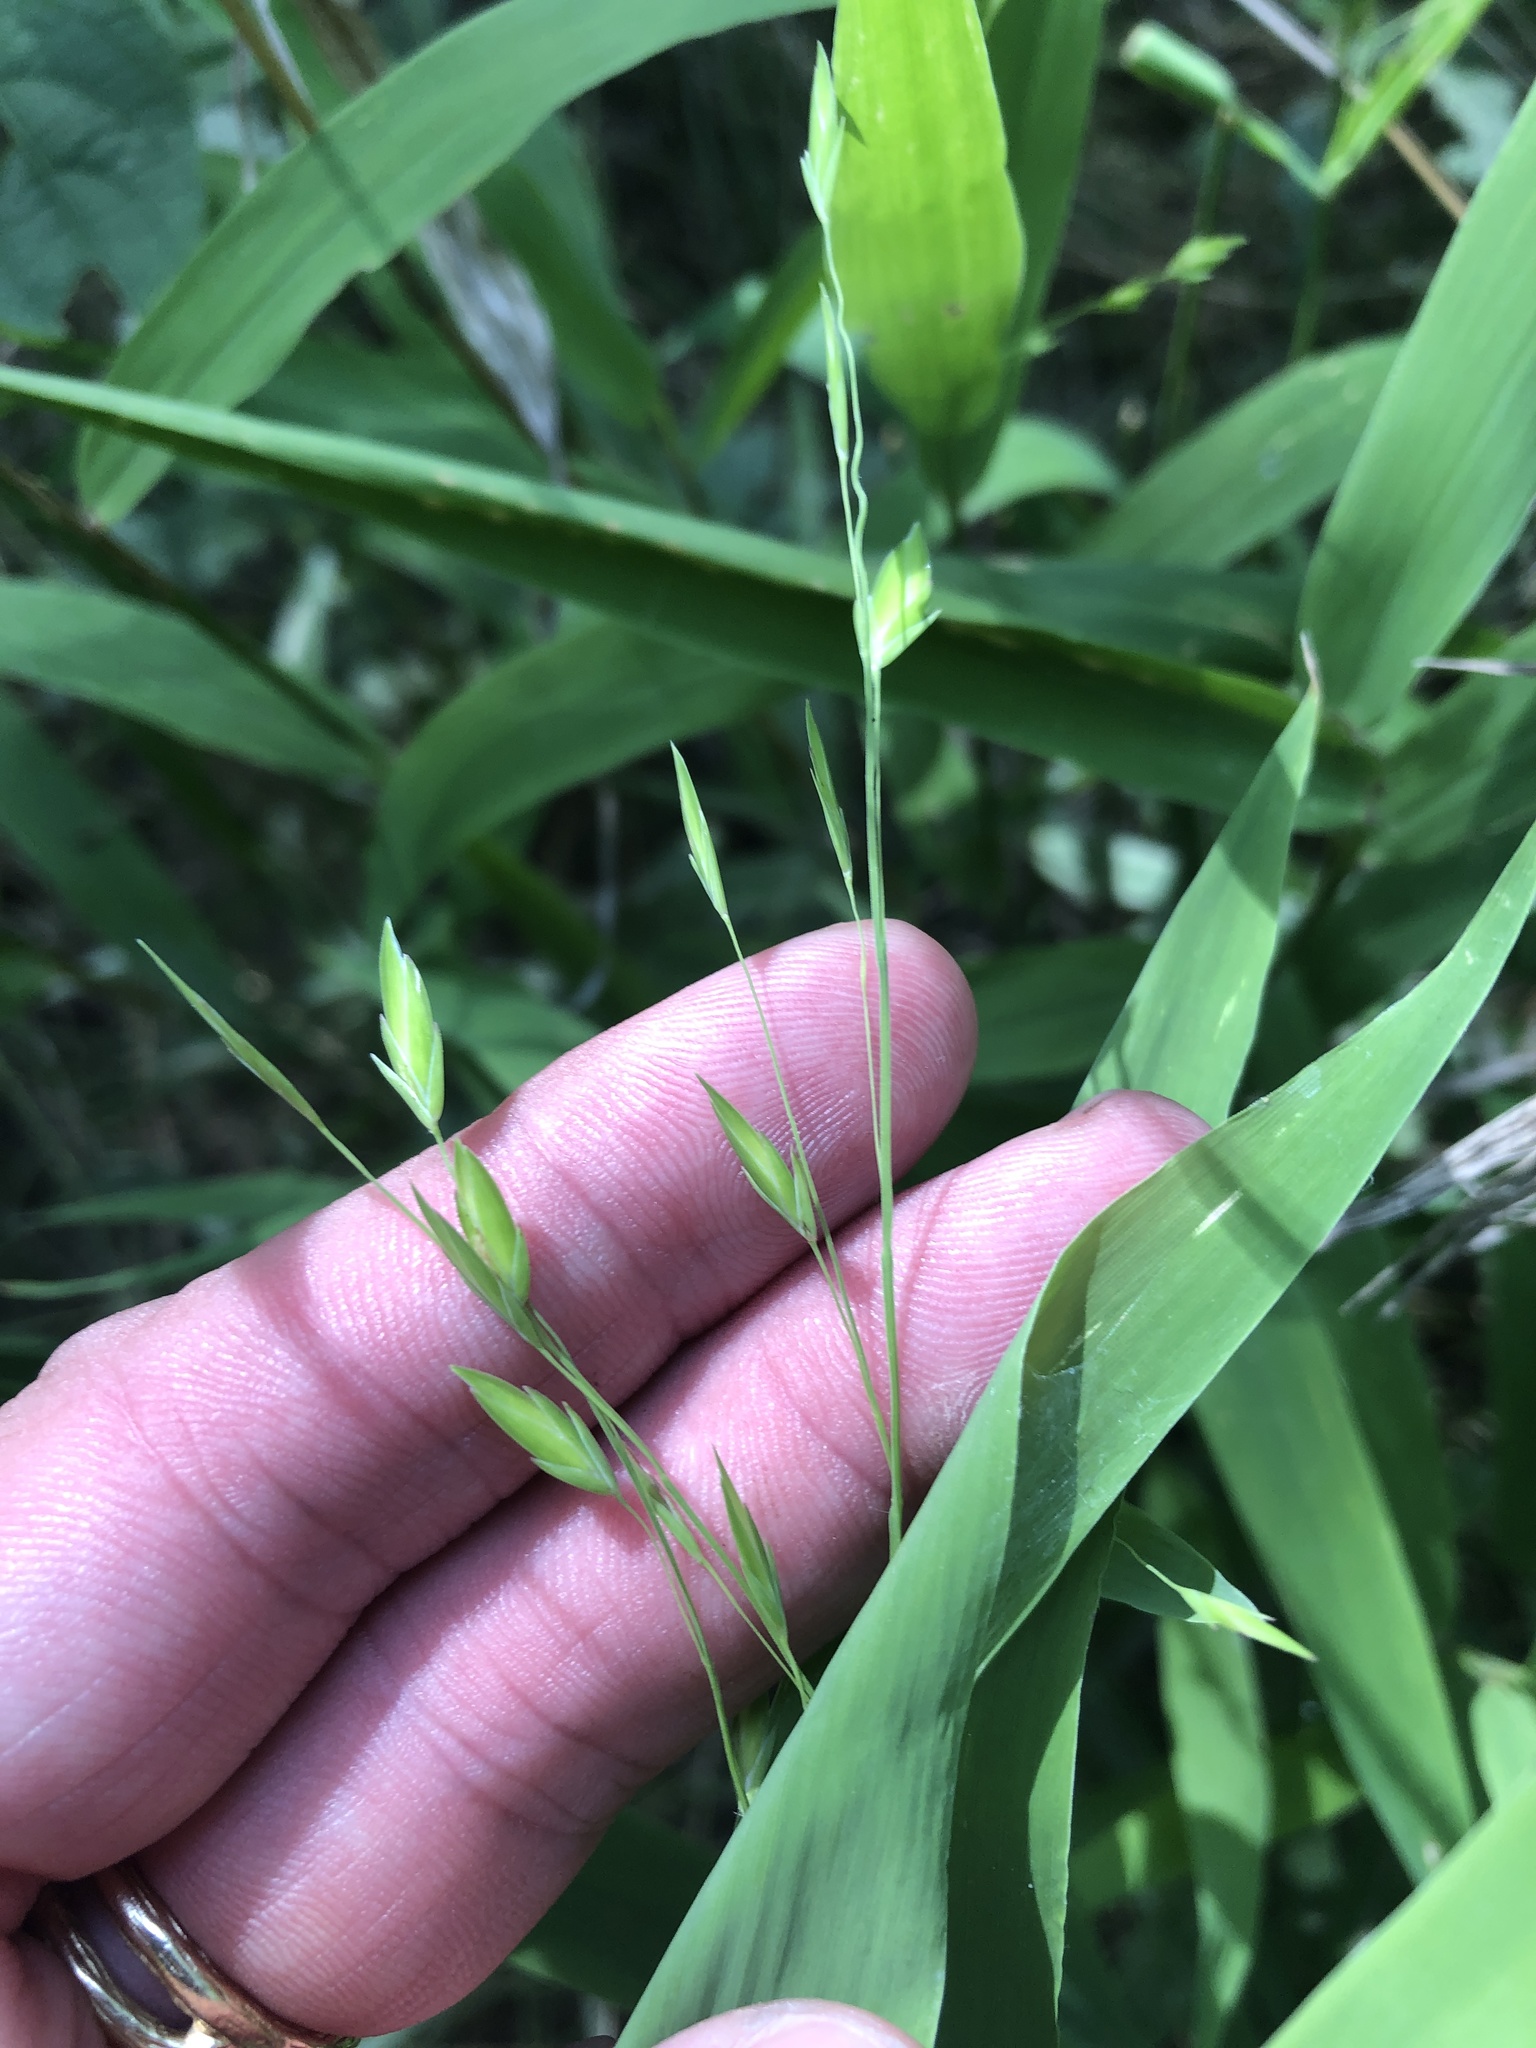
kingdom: Plantae
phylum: Tracheophyta
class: Liliopsida
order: Poales
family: Poaceae
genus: Chasmanthium
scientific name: Chasmanthium latifolium
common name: Broad-leaved chasmanthium
